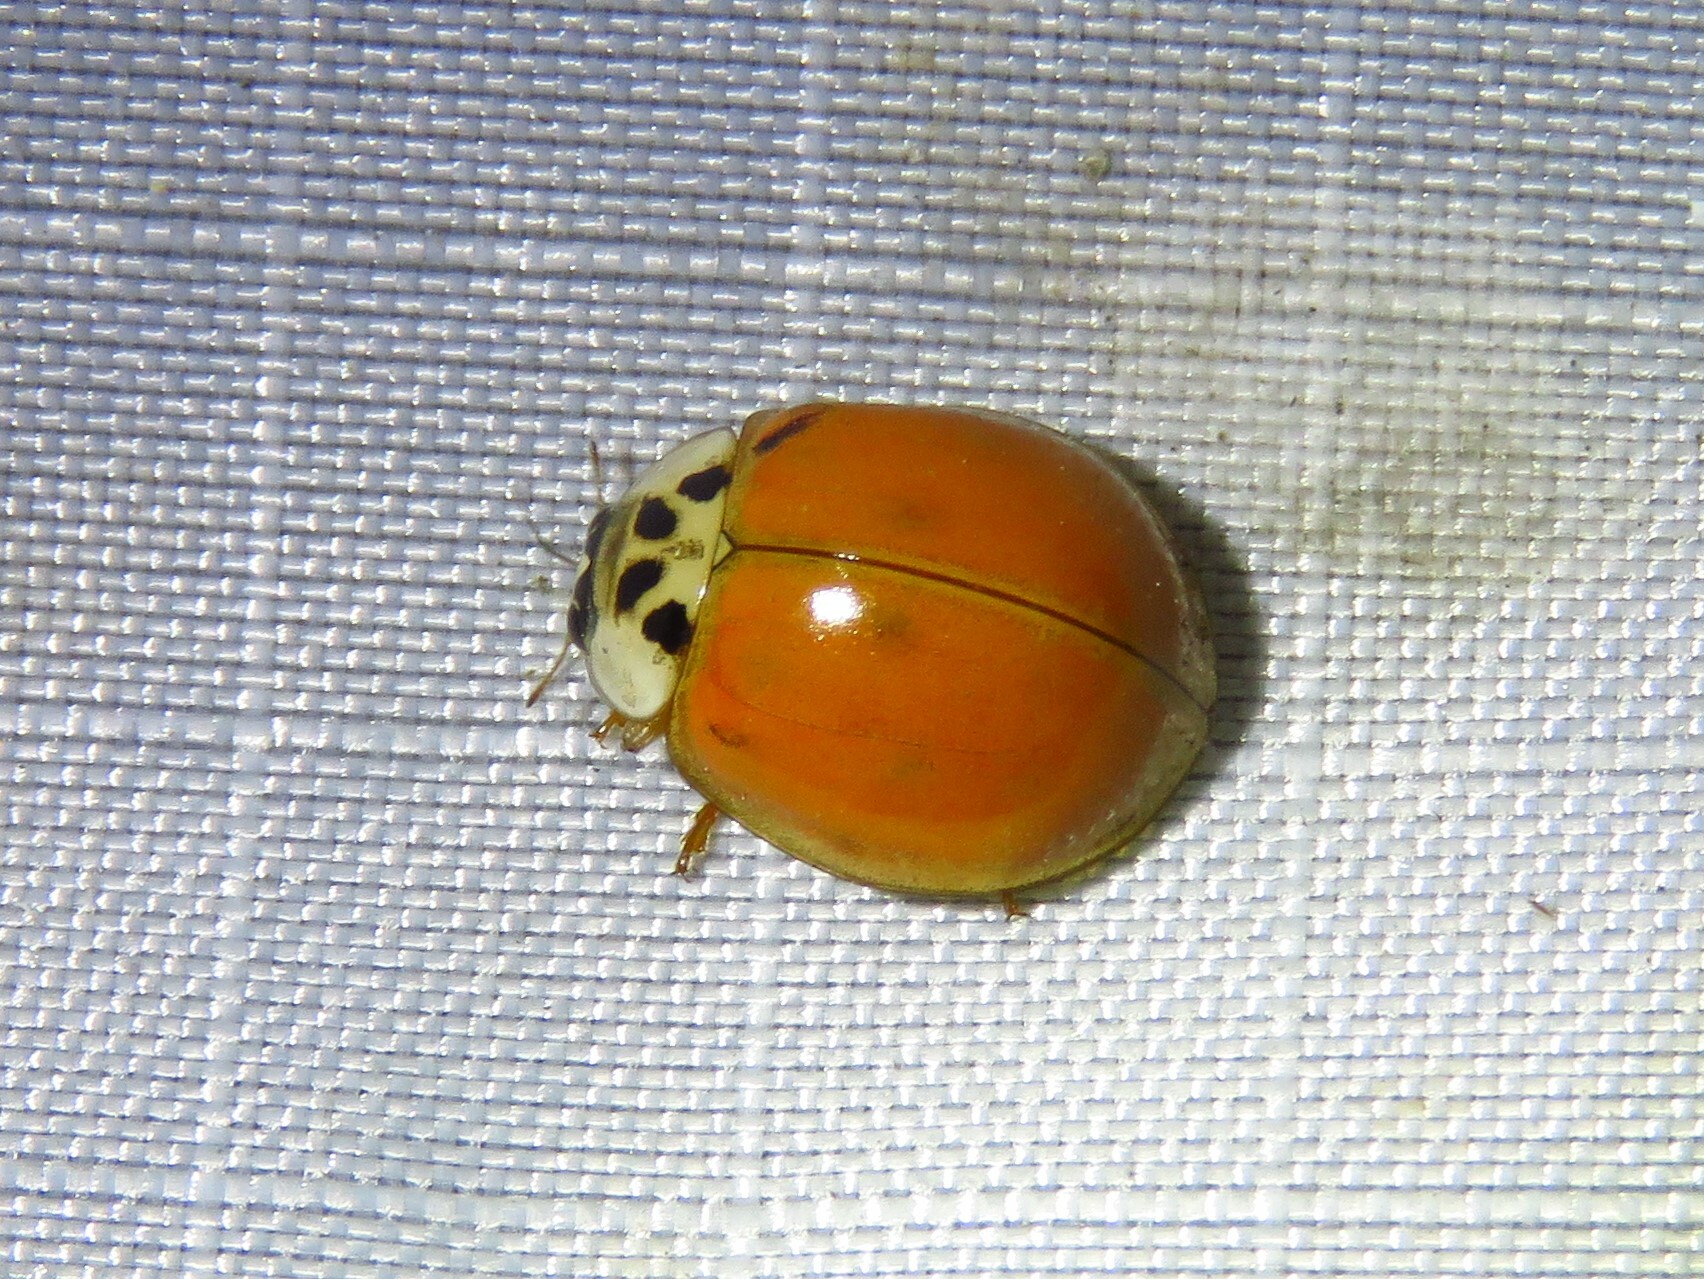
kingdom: Animalia
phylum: Arthropoda
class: Insecta
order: Coleoptera
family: Coccinellidae
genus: Harmonia
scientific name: Harmonia axyridis
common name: Harlequin ladybird
